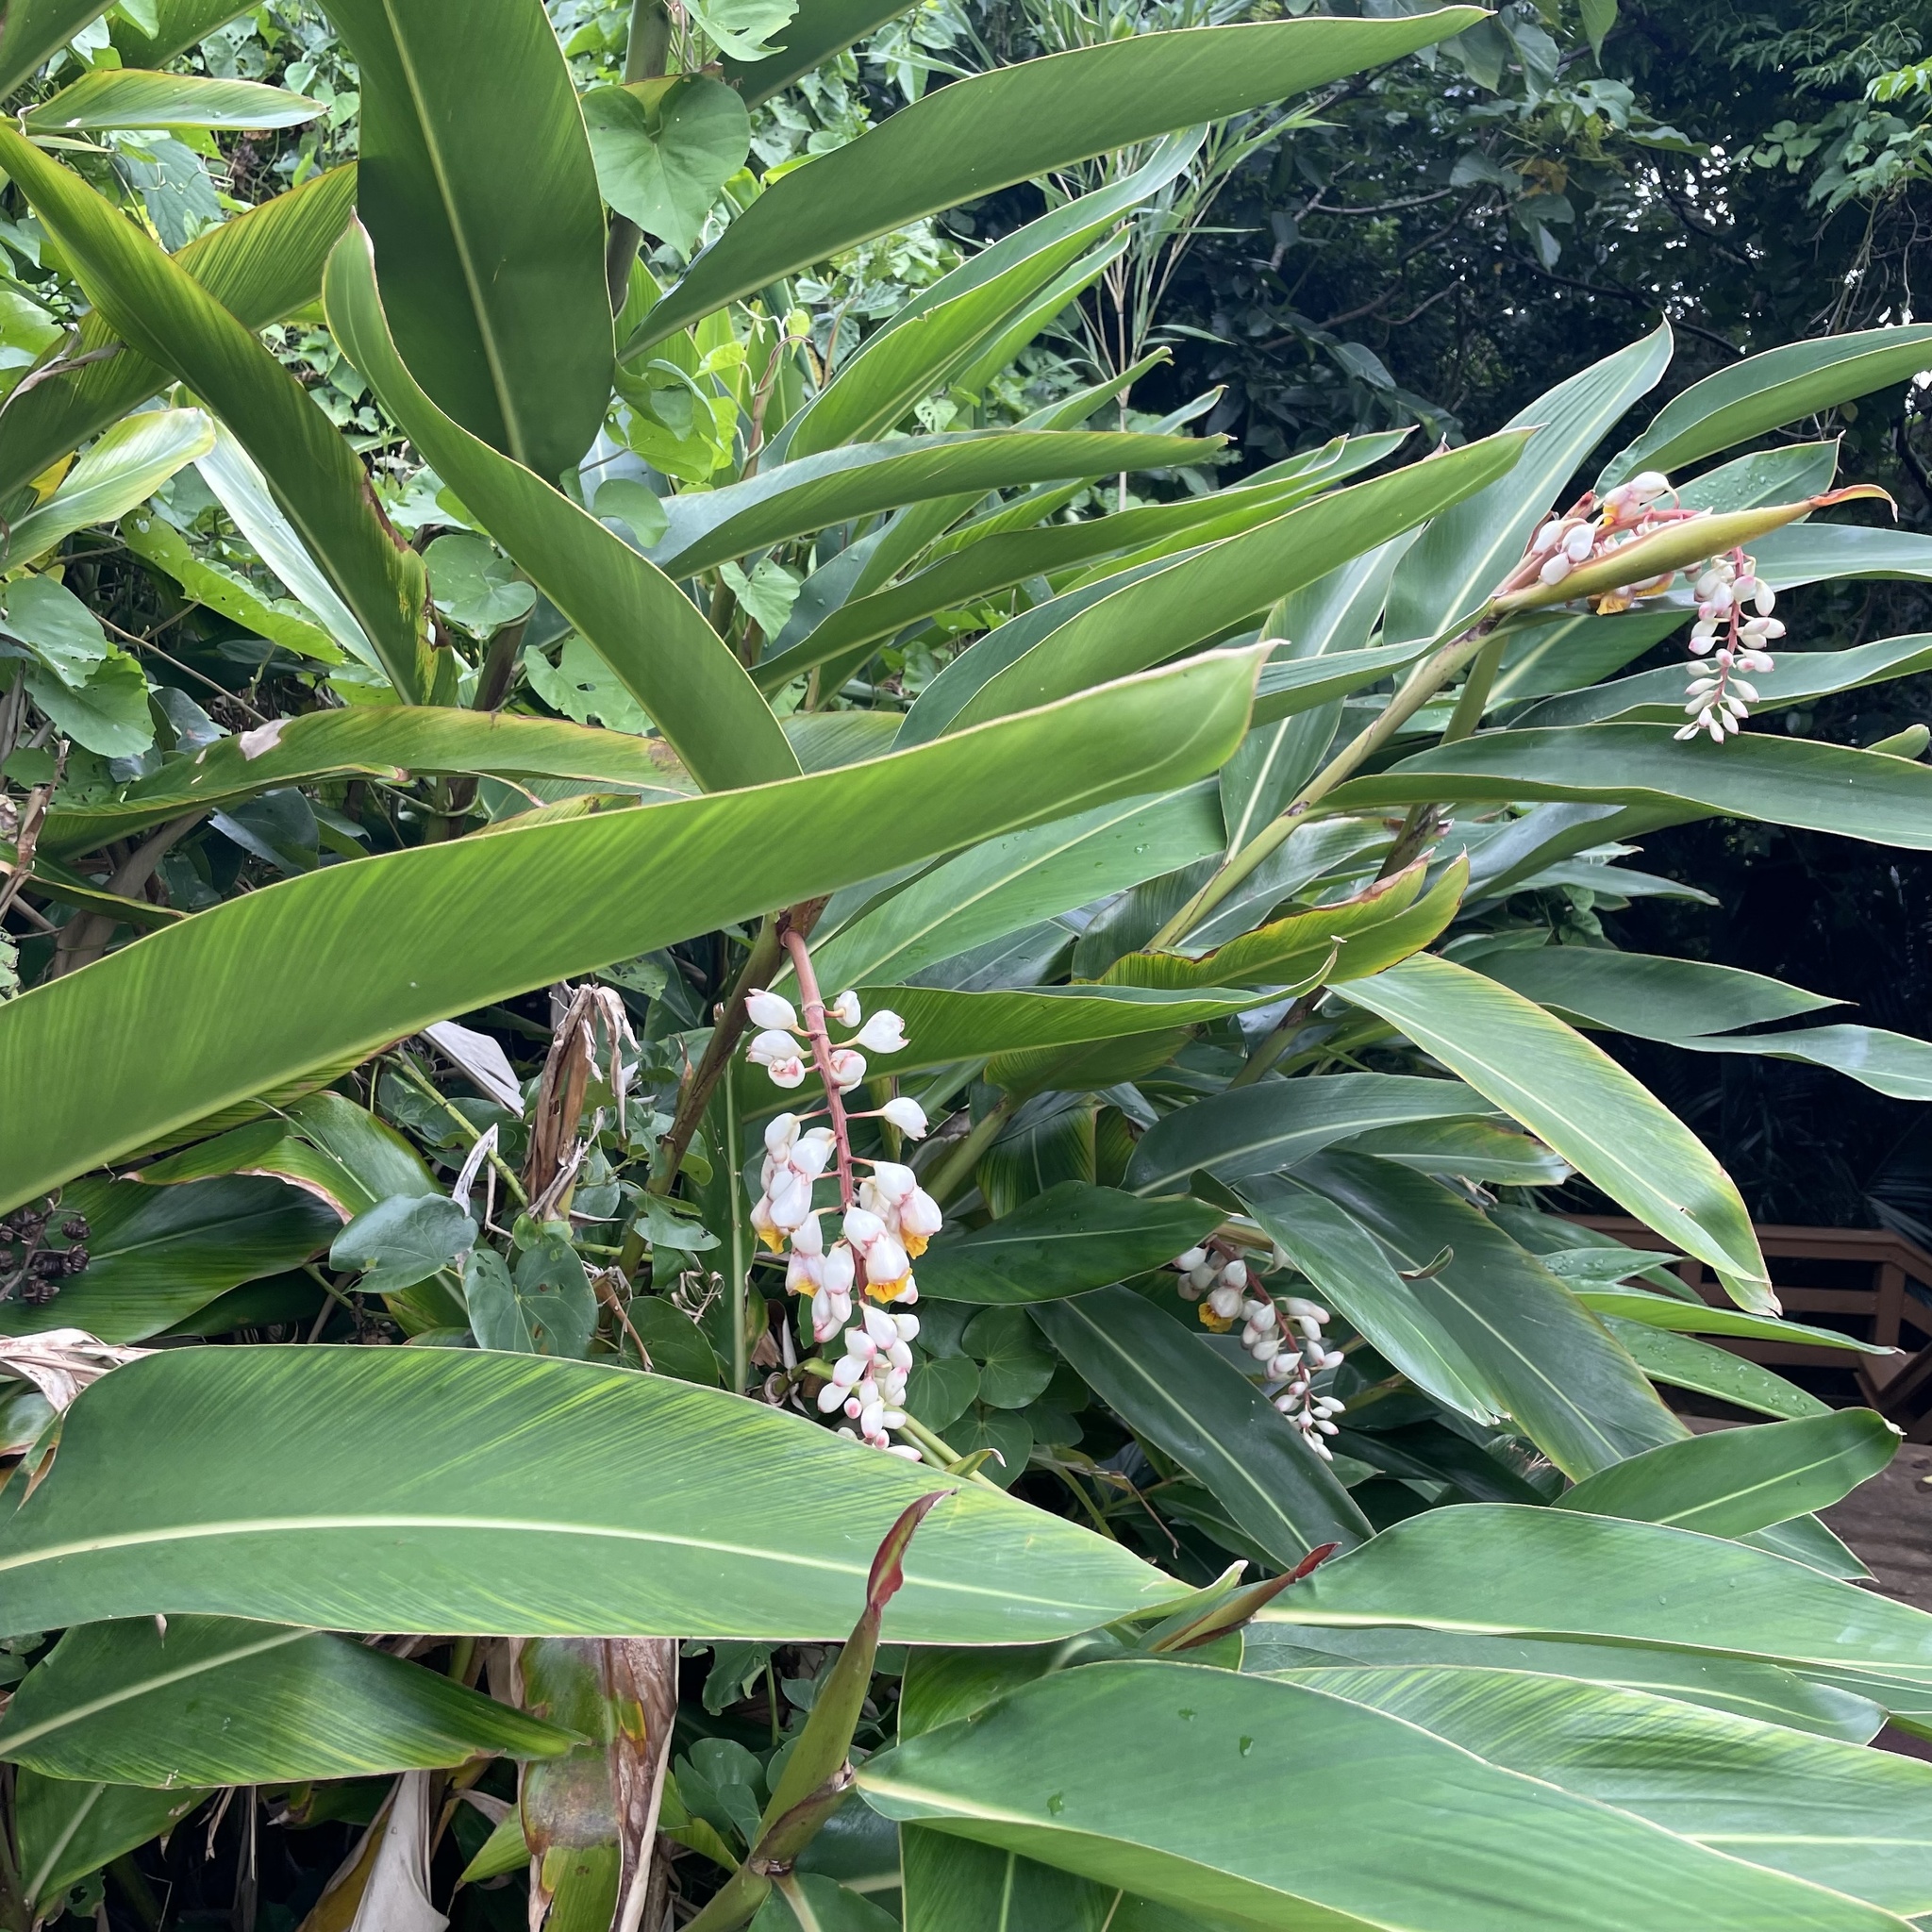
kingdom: Plantae
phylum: Tracheophyta
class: Liliopsida
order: Zingiberales
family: Zingiberaceae
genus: Alpinia
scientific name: Alpinia zerumbet
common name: Shellplant
